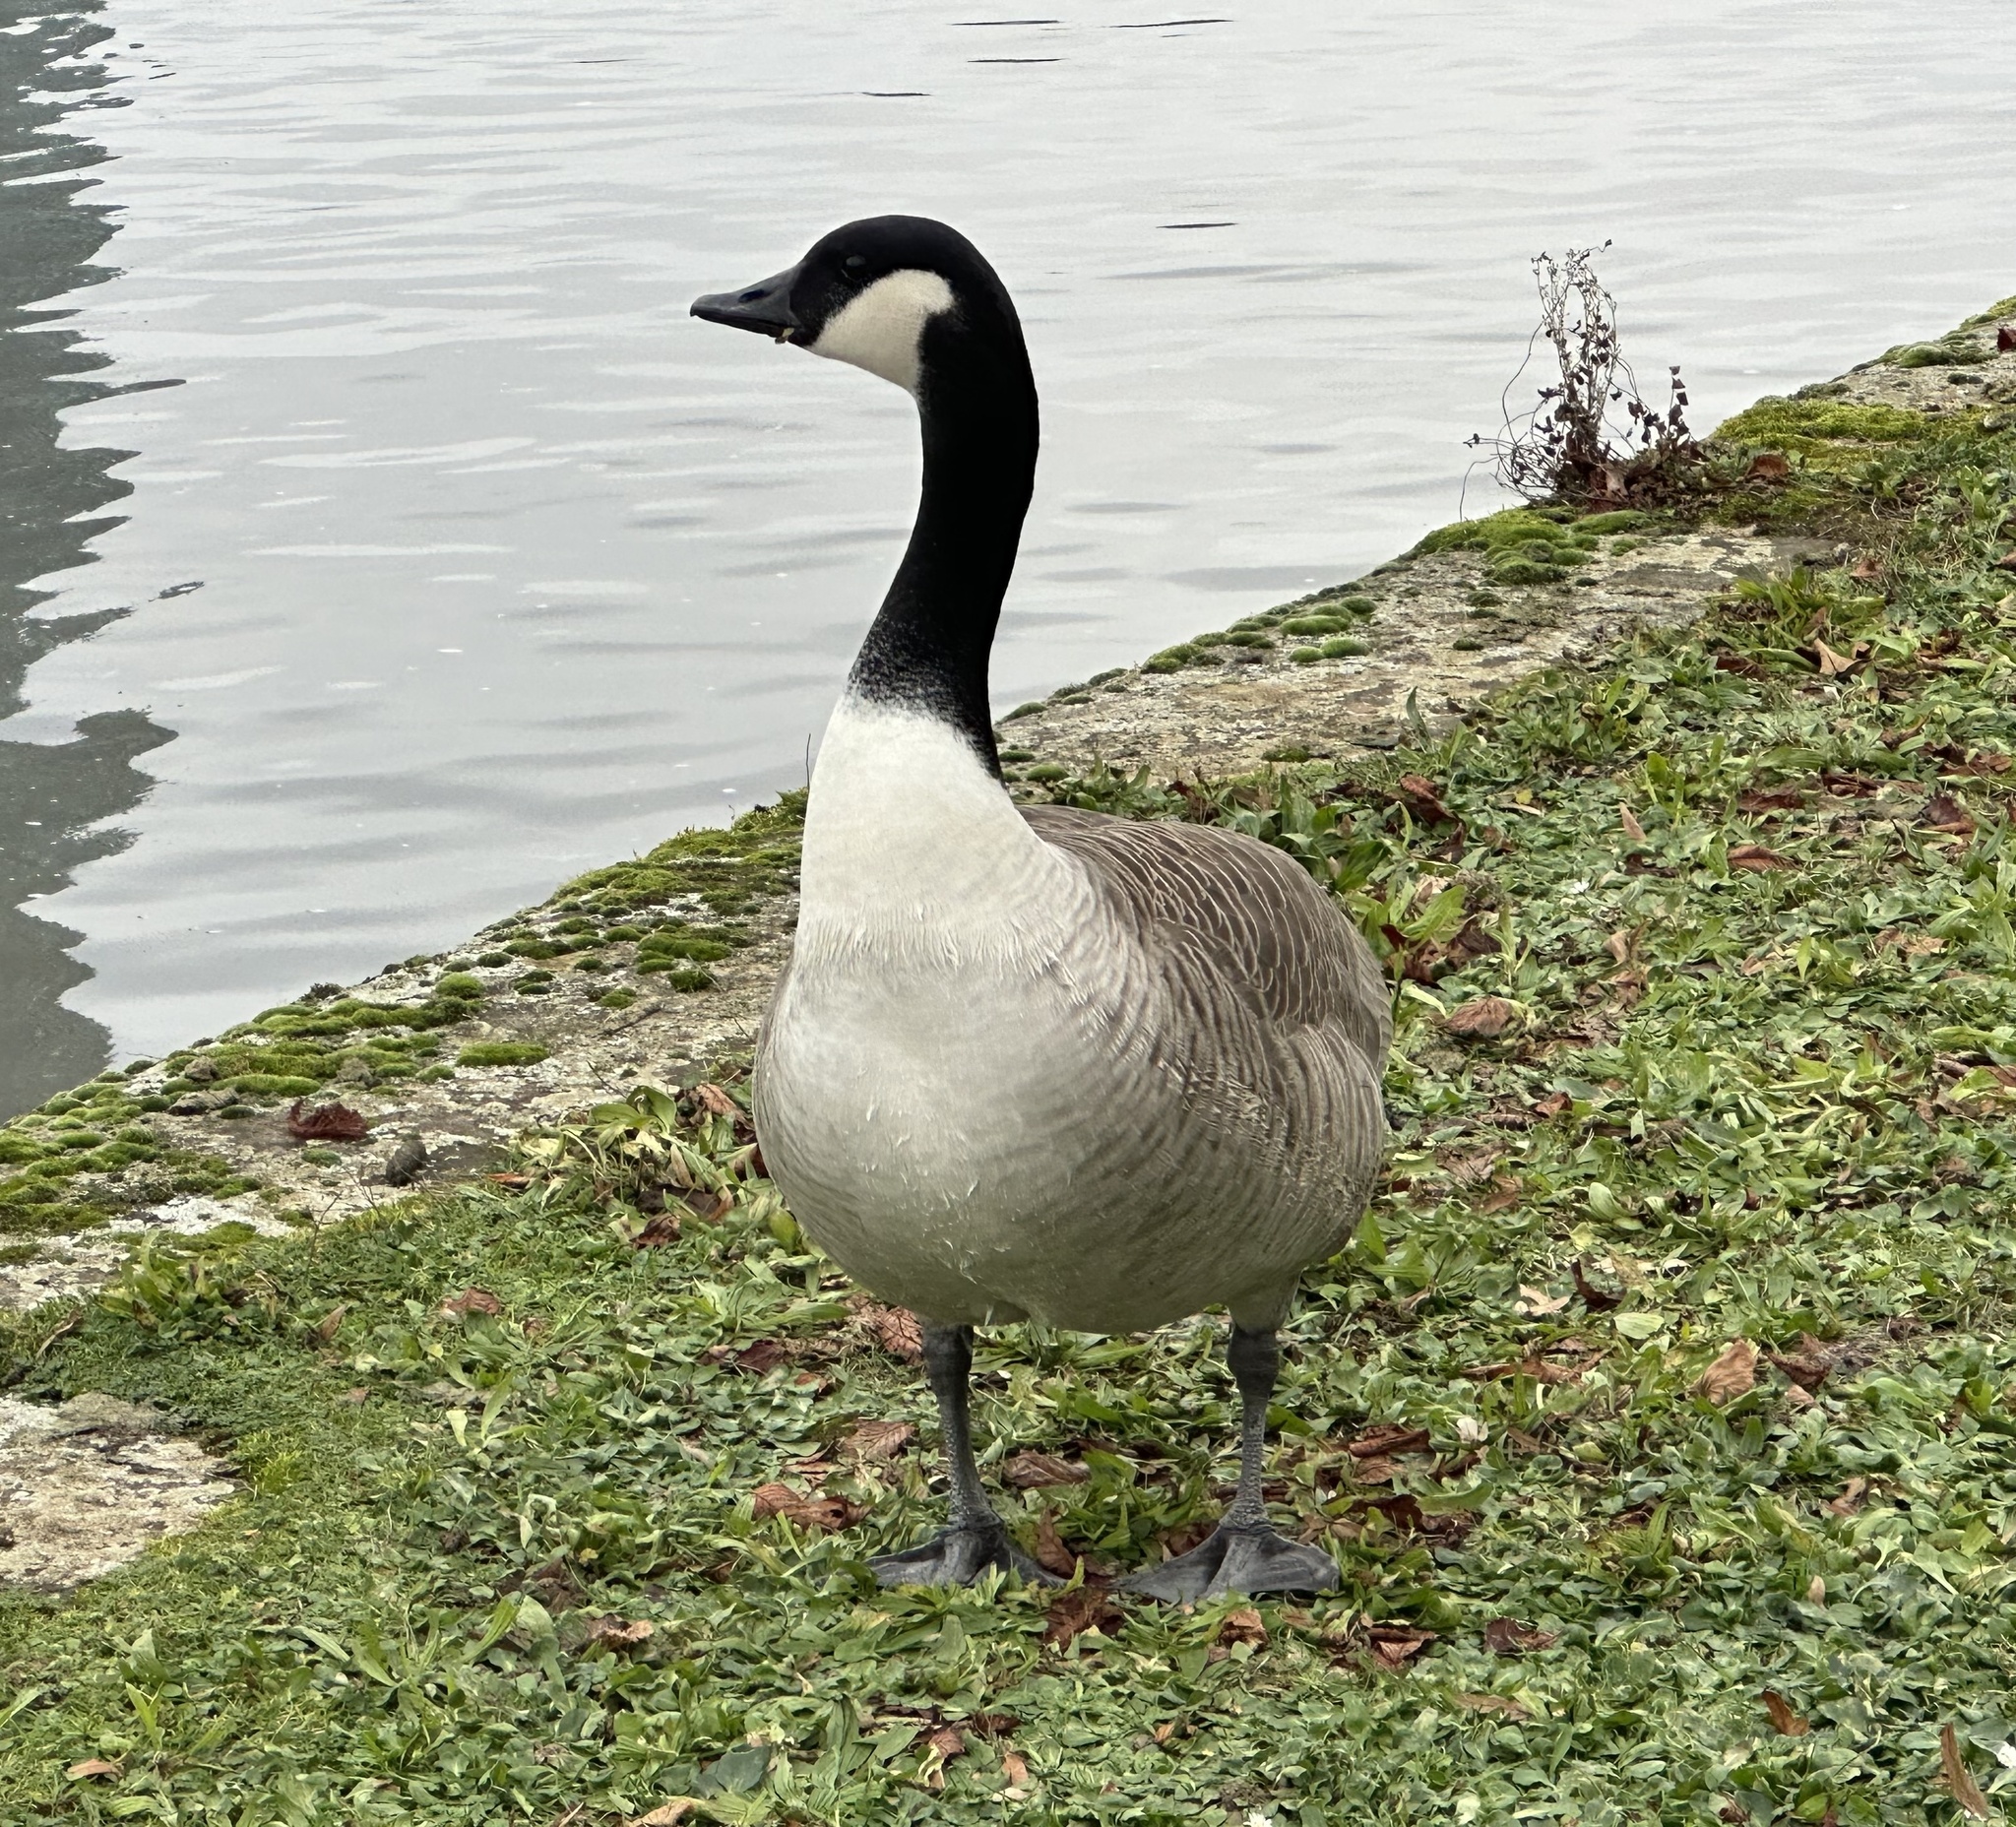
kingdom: Animalia
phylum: Chordata
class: Aves
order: Anseriformes
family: Anatidae
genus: Branta
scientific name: Branta canadensis
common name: Canada goose
